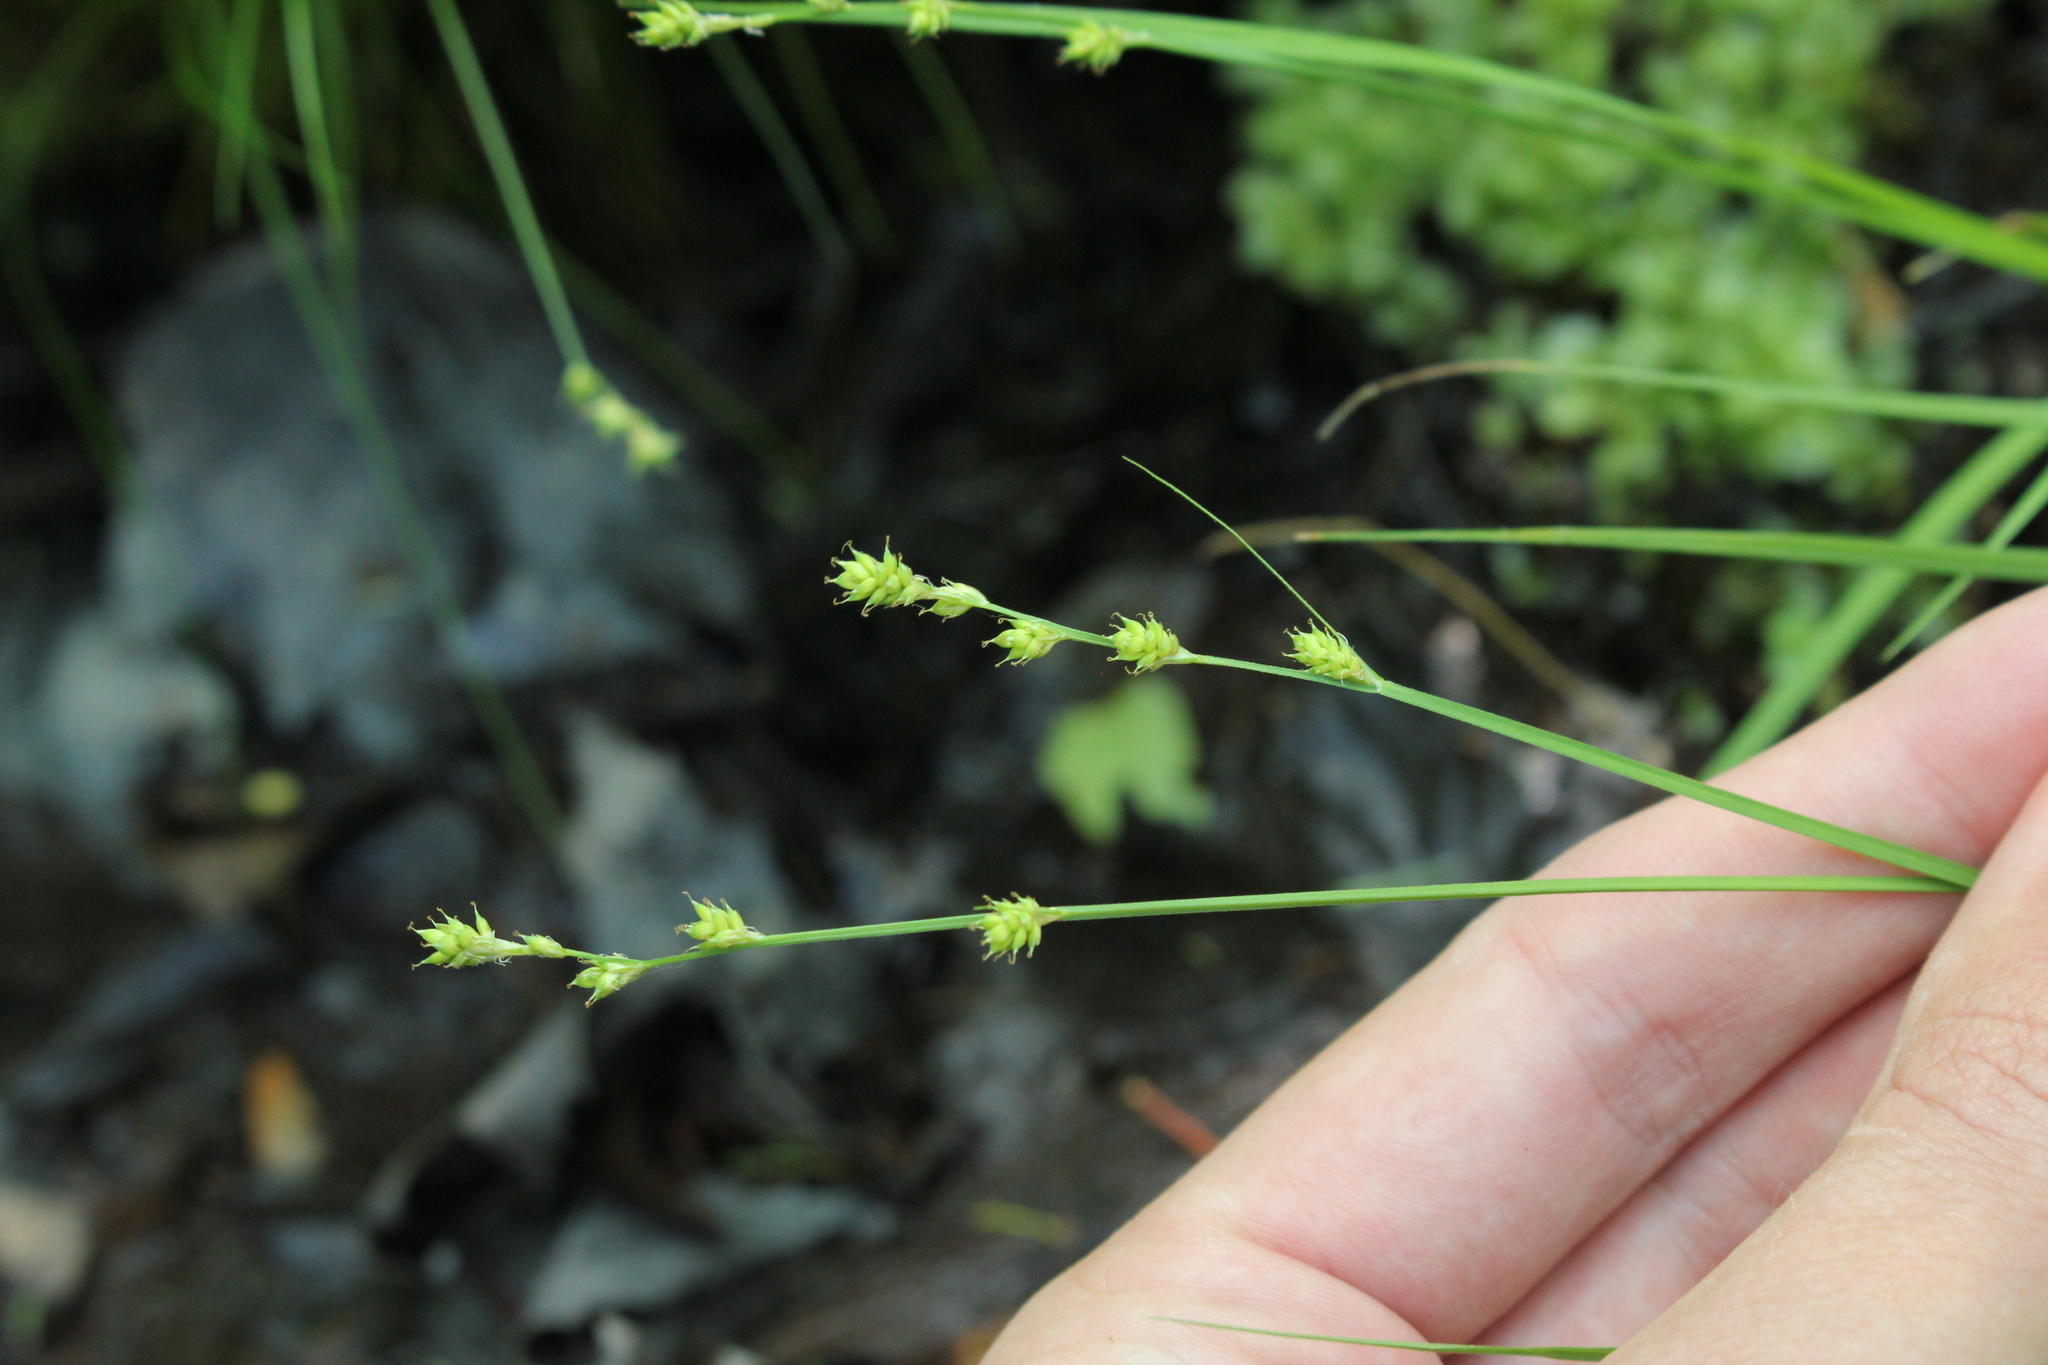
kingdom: Plantae
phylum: Tracheophyta
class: Liliopsida
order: Poales
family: Cyperaceae
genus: Carex
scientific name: Carex canescens
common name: White sedge
